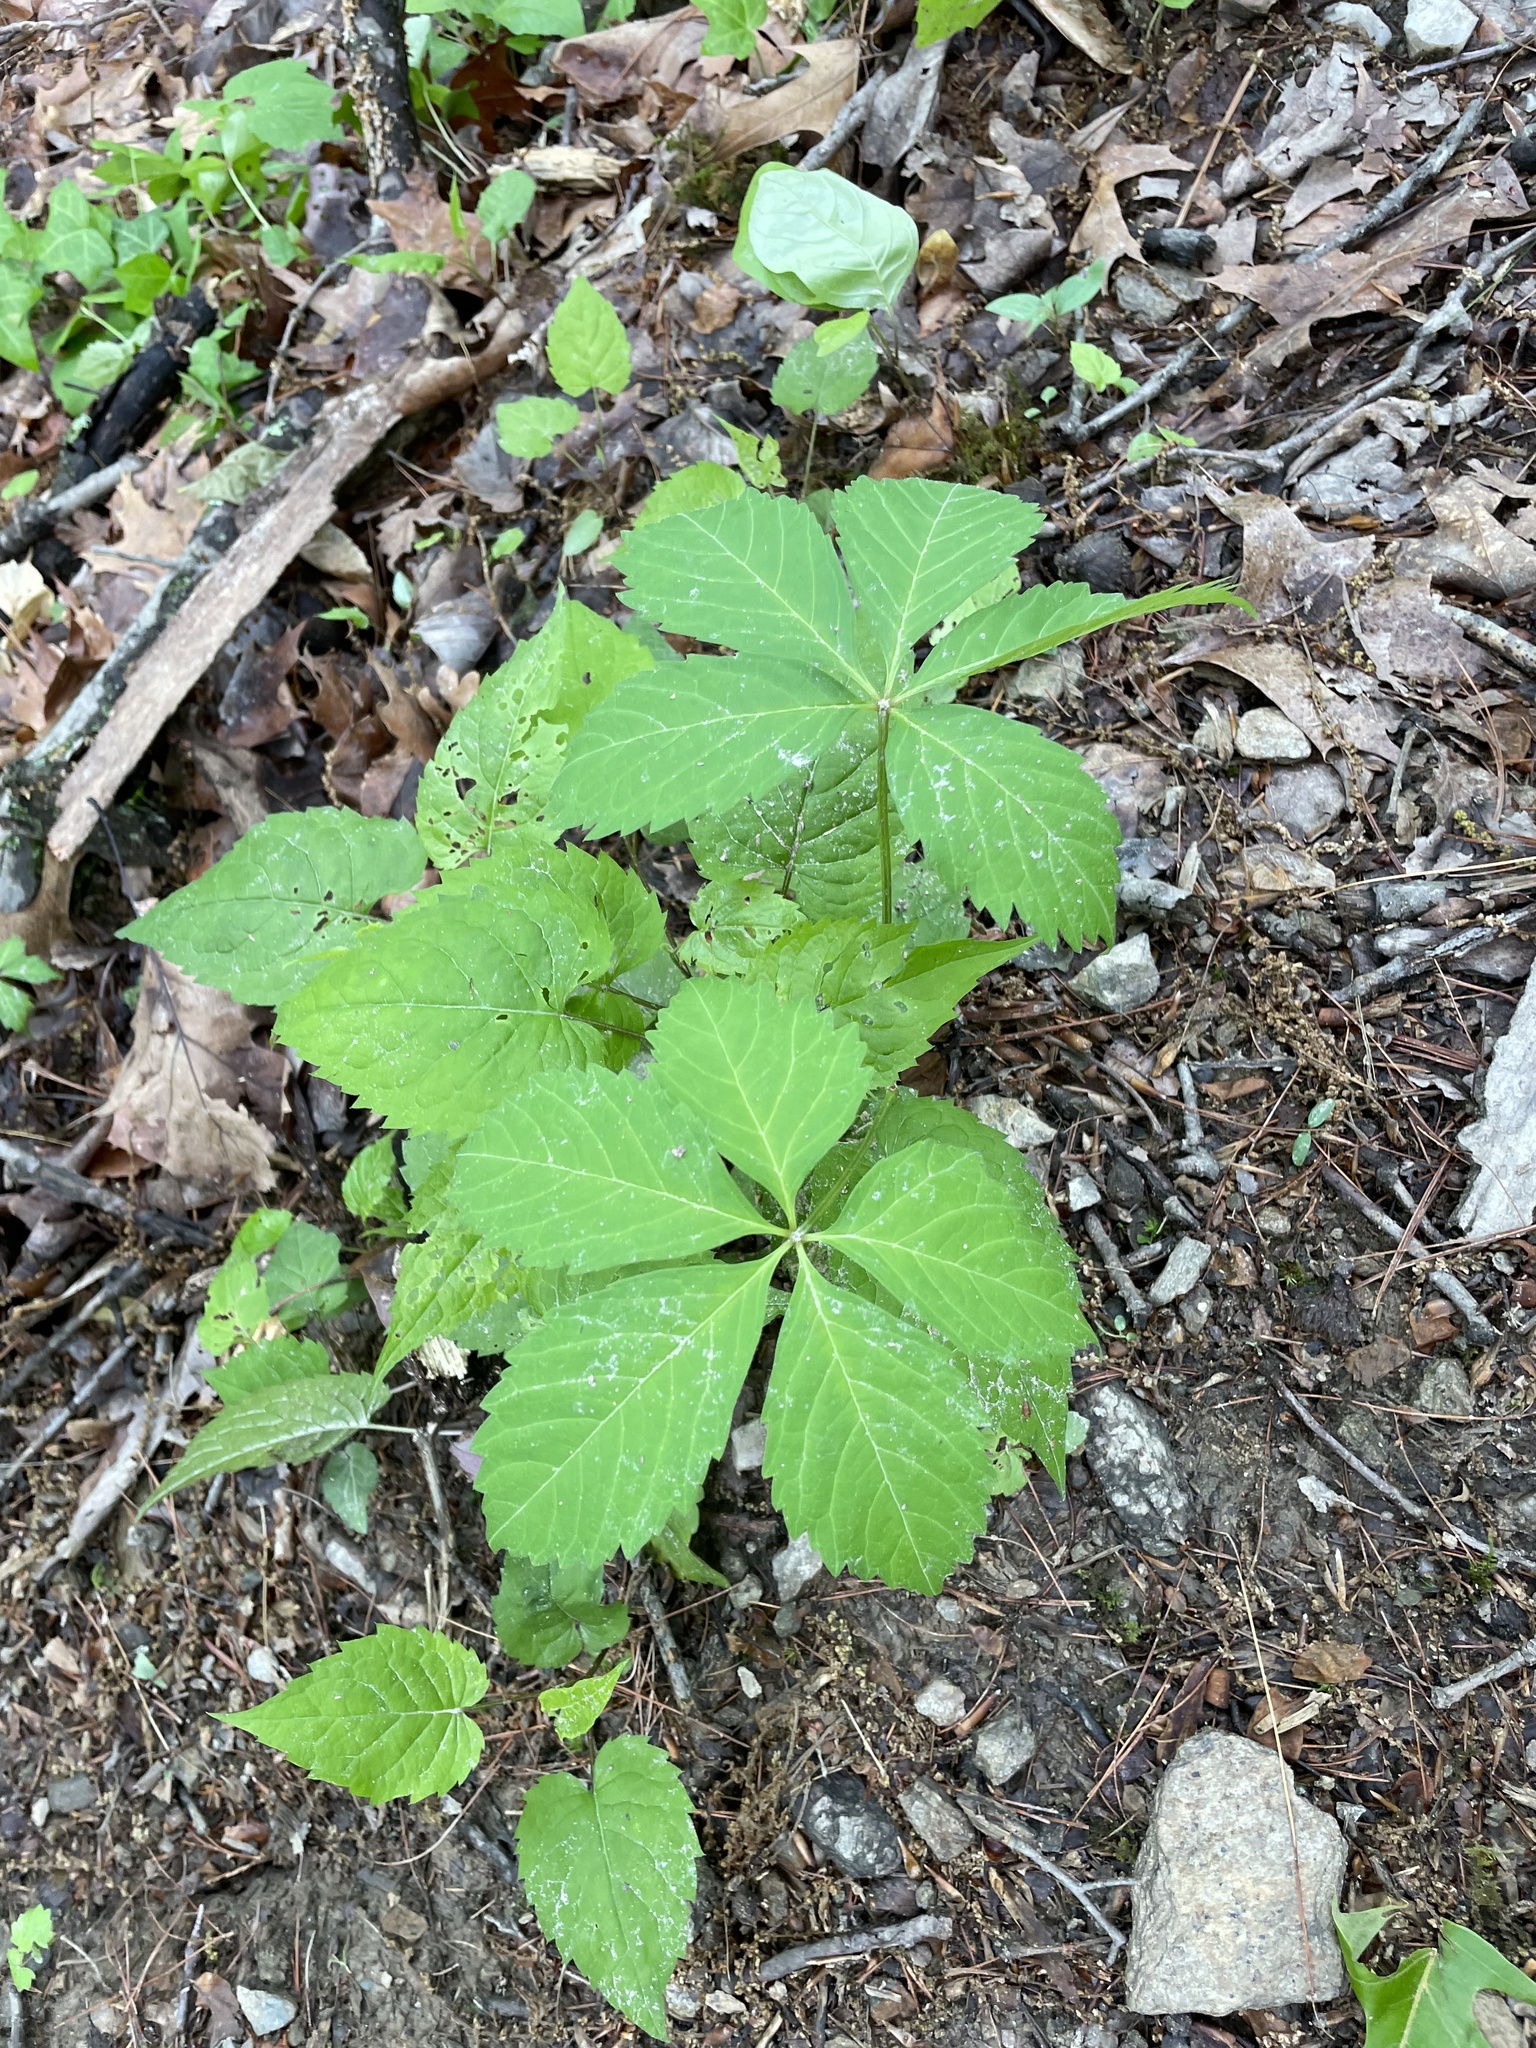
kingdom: Plantae
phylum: Tracheophyta
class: Magnoliopsida
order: Vitales
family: Vitaceae
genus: Parthenocissus
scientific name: Parthenocissus inserta
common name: False virginia-creeper
